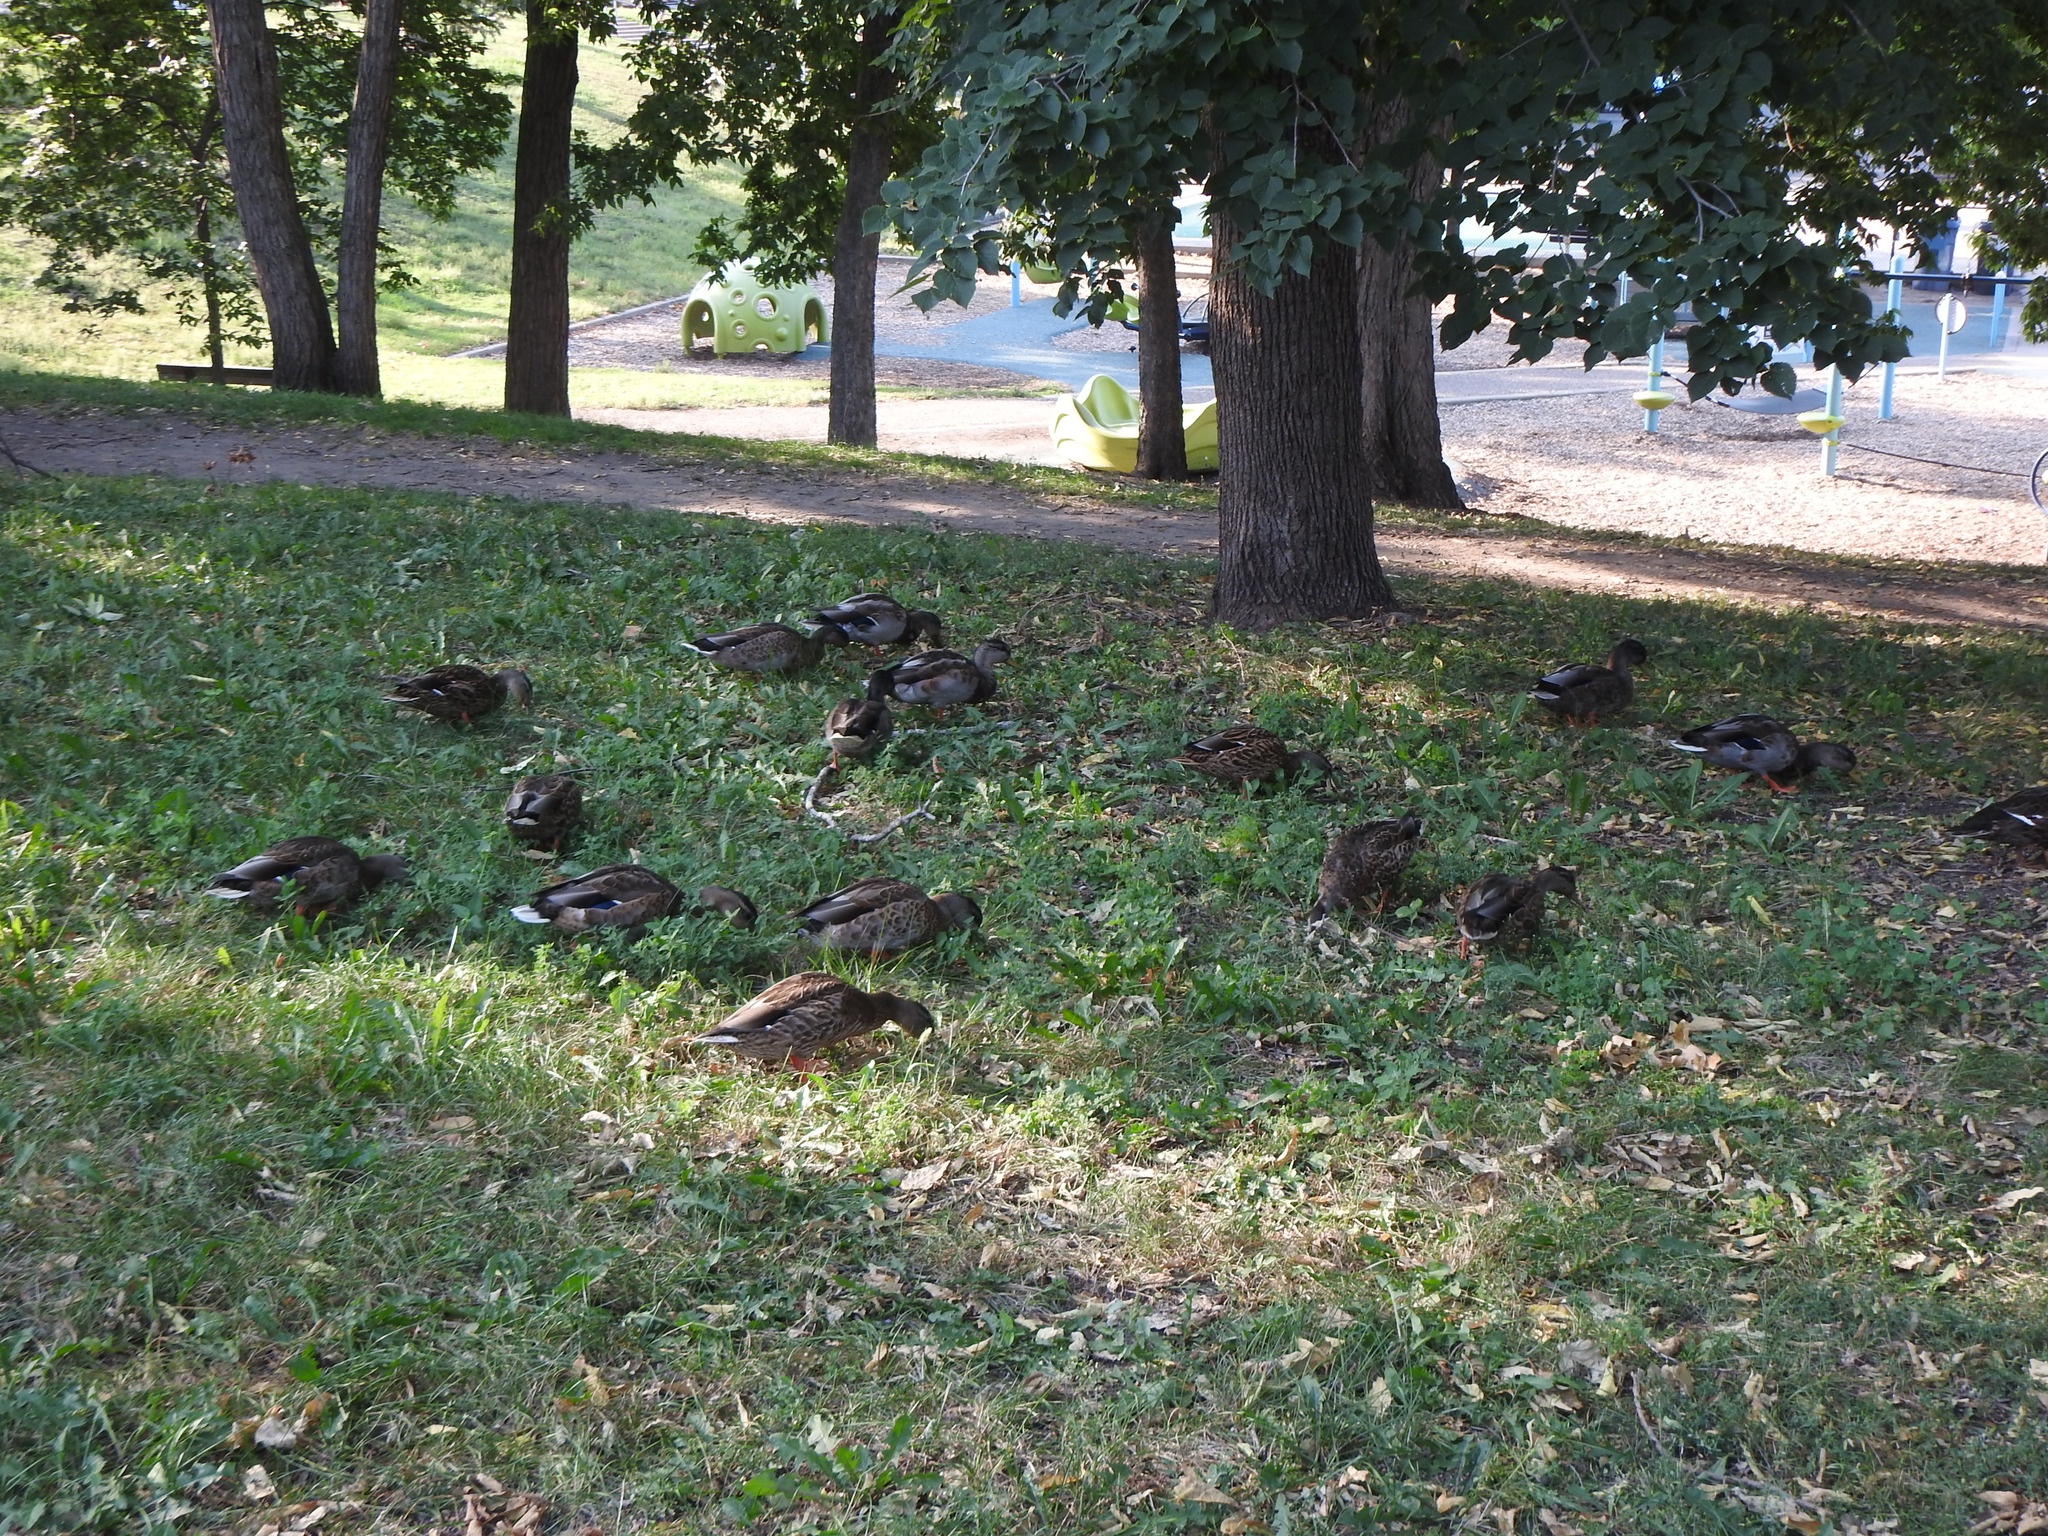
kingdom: Animalia
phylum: Chordata
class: Aves
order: Anseriformes
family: Anatidae
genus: Anas
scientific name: Anas platyrhynchos
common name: Mallard
